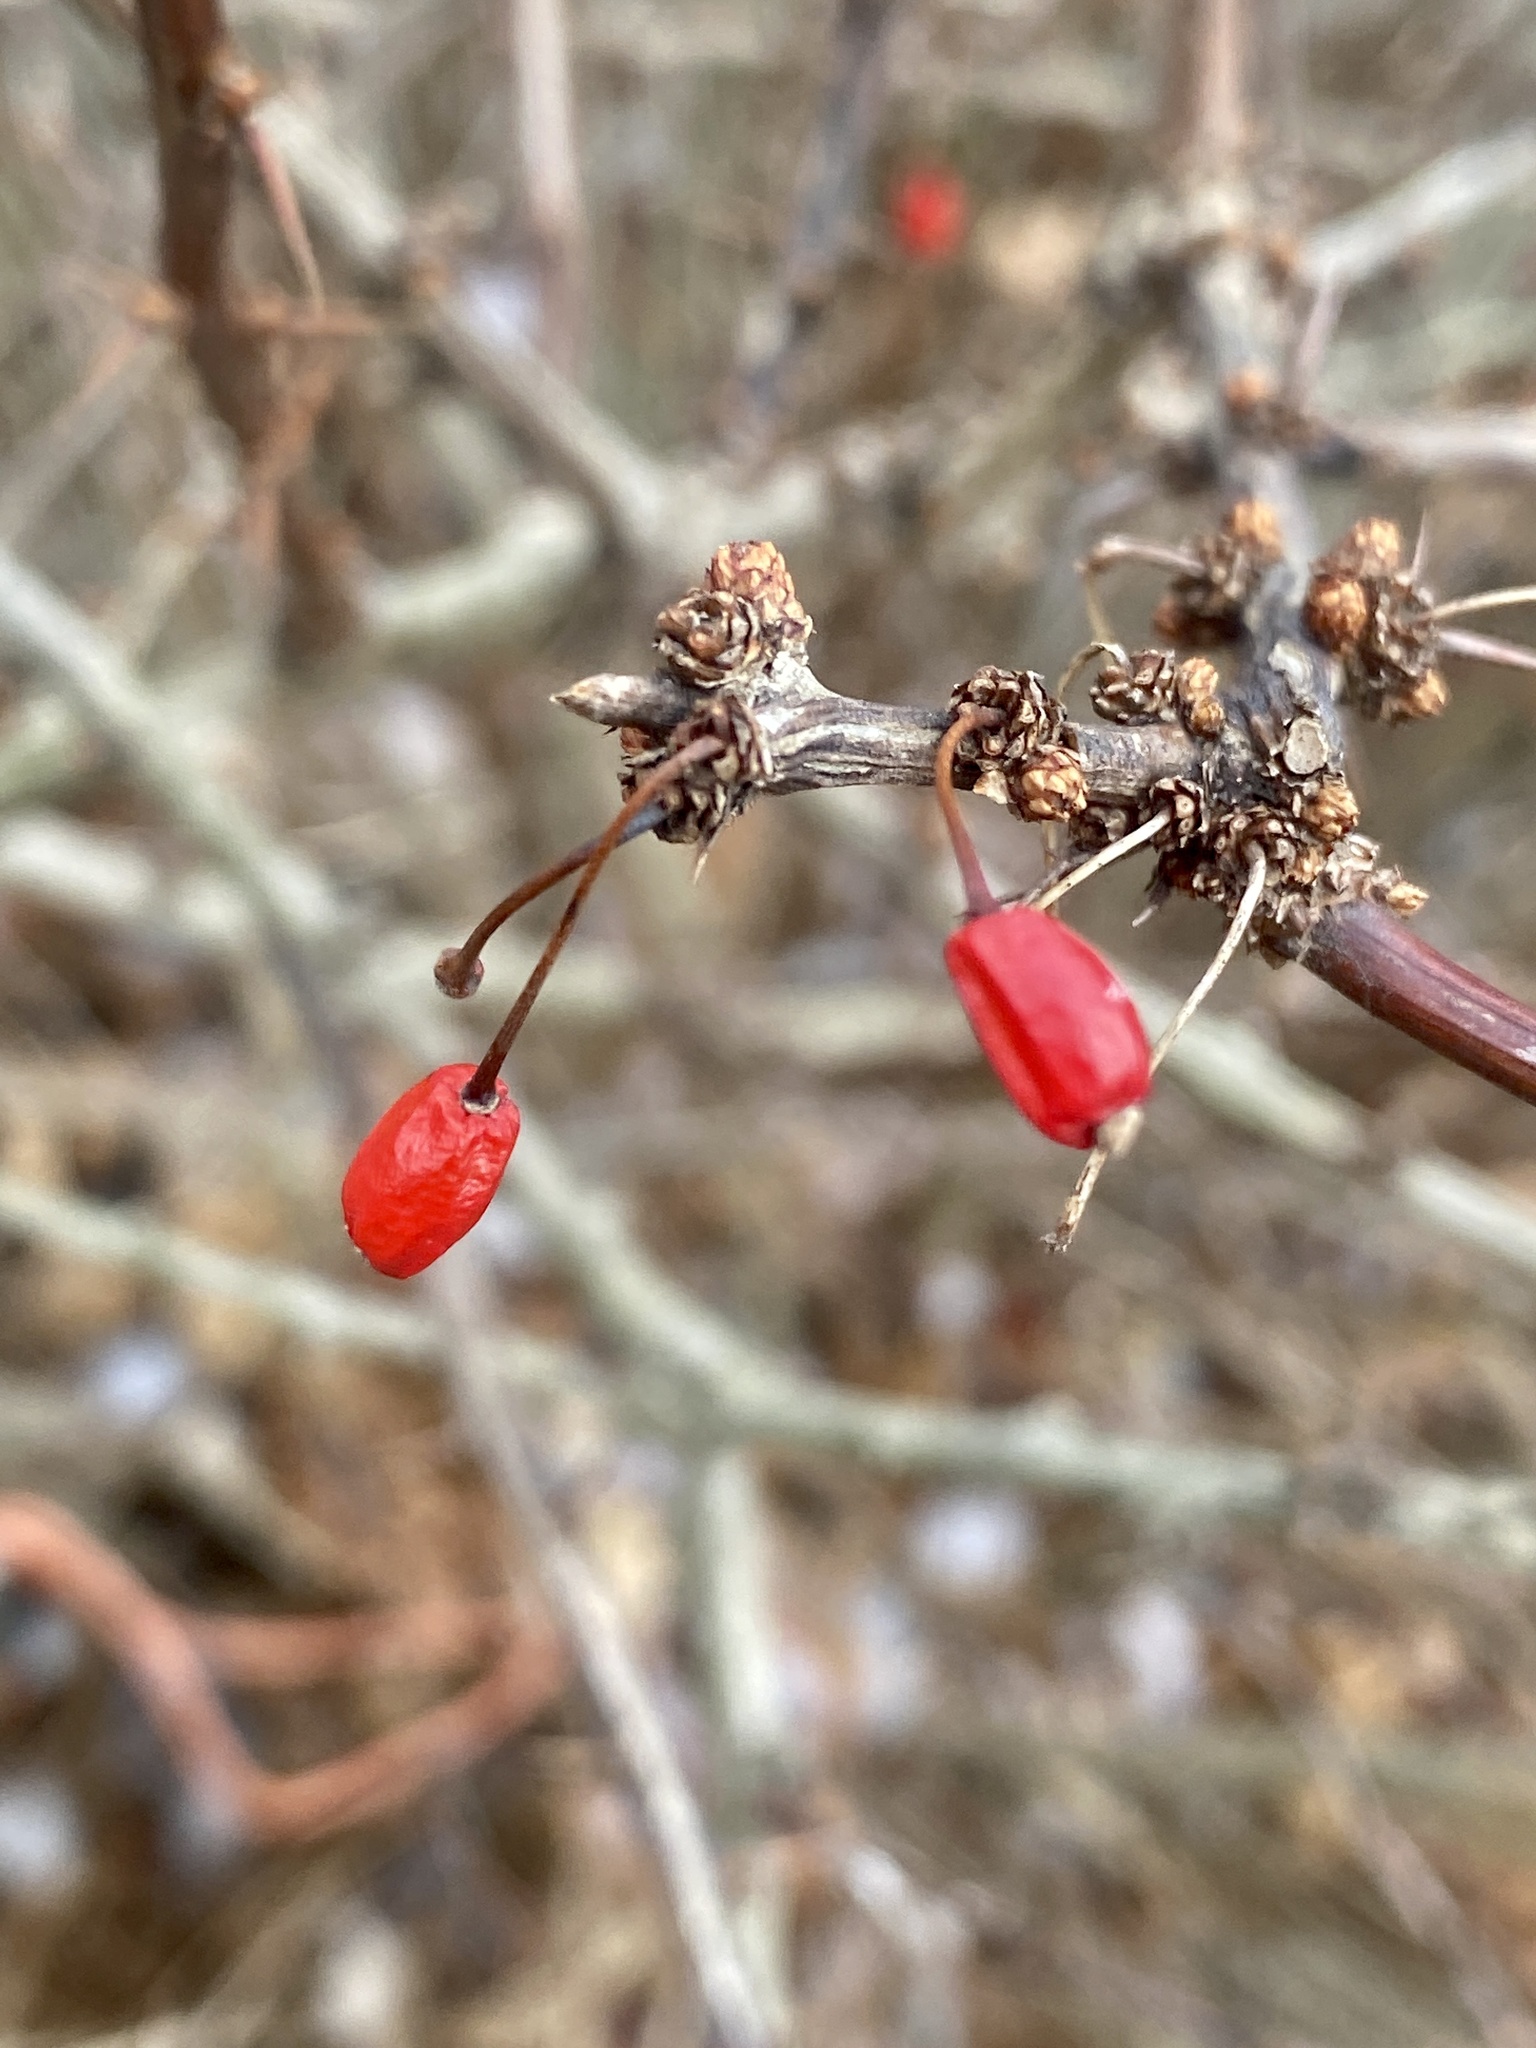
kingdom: Plantae
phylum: Tracheophyta
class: Magnoliopsida
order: Ranunculales
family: Berberidaceae
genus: Berberis
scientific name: Berberis thunbergii
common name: Japanese barberry
